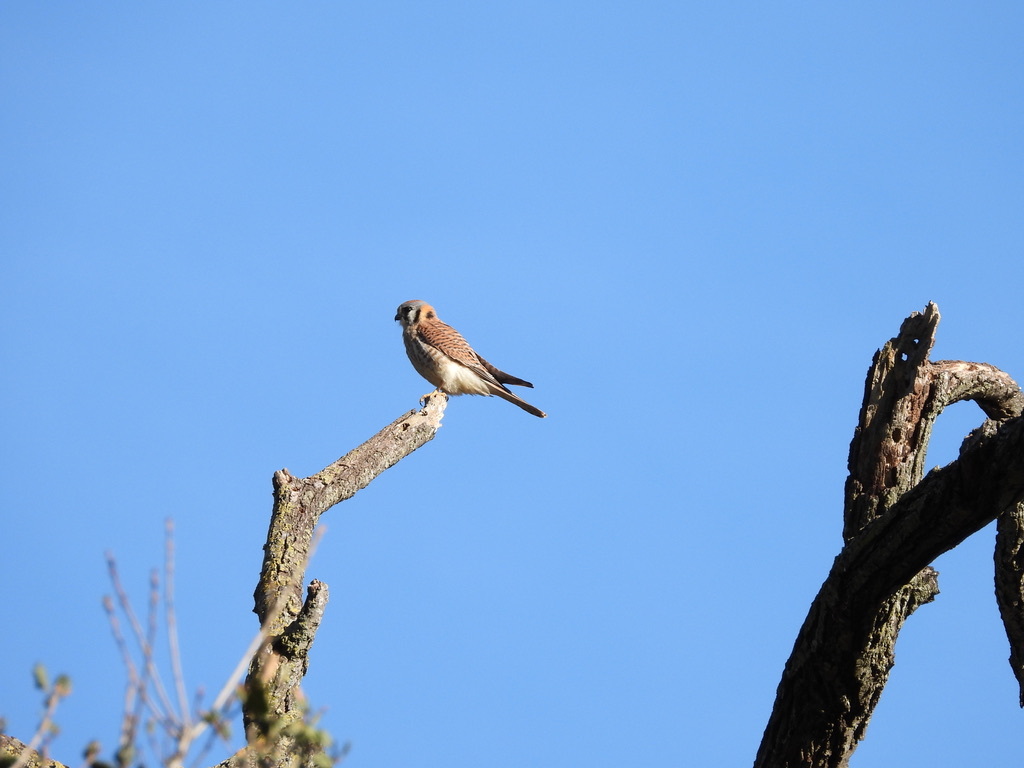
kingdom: Animalia
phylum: Chordata
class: Aves
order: Falconiformes
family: Falconidae
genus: Falco
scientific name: Falco sparverius
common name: American kestrel
